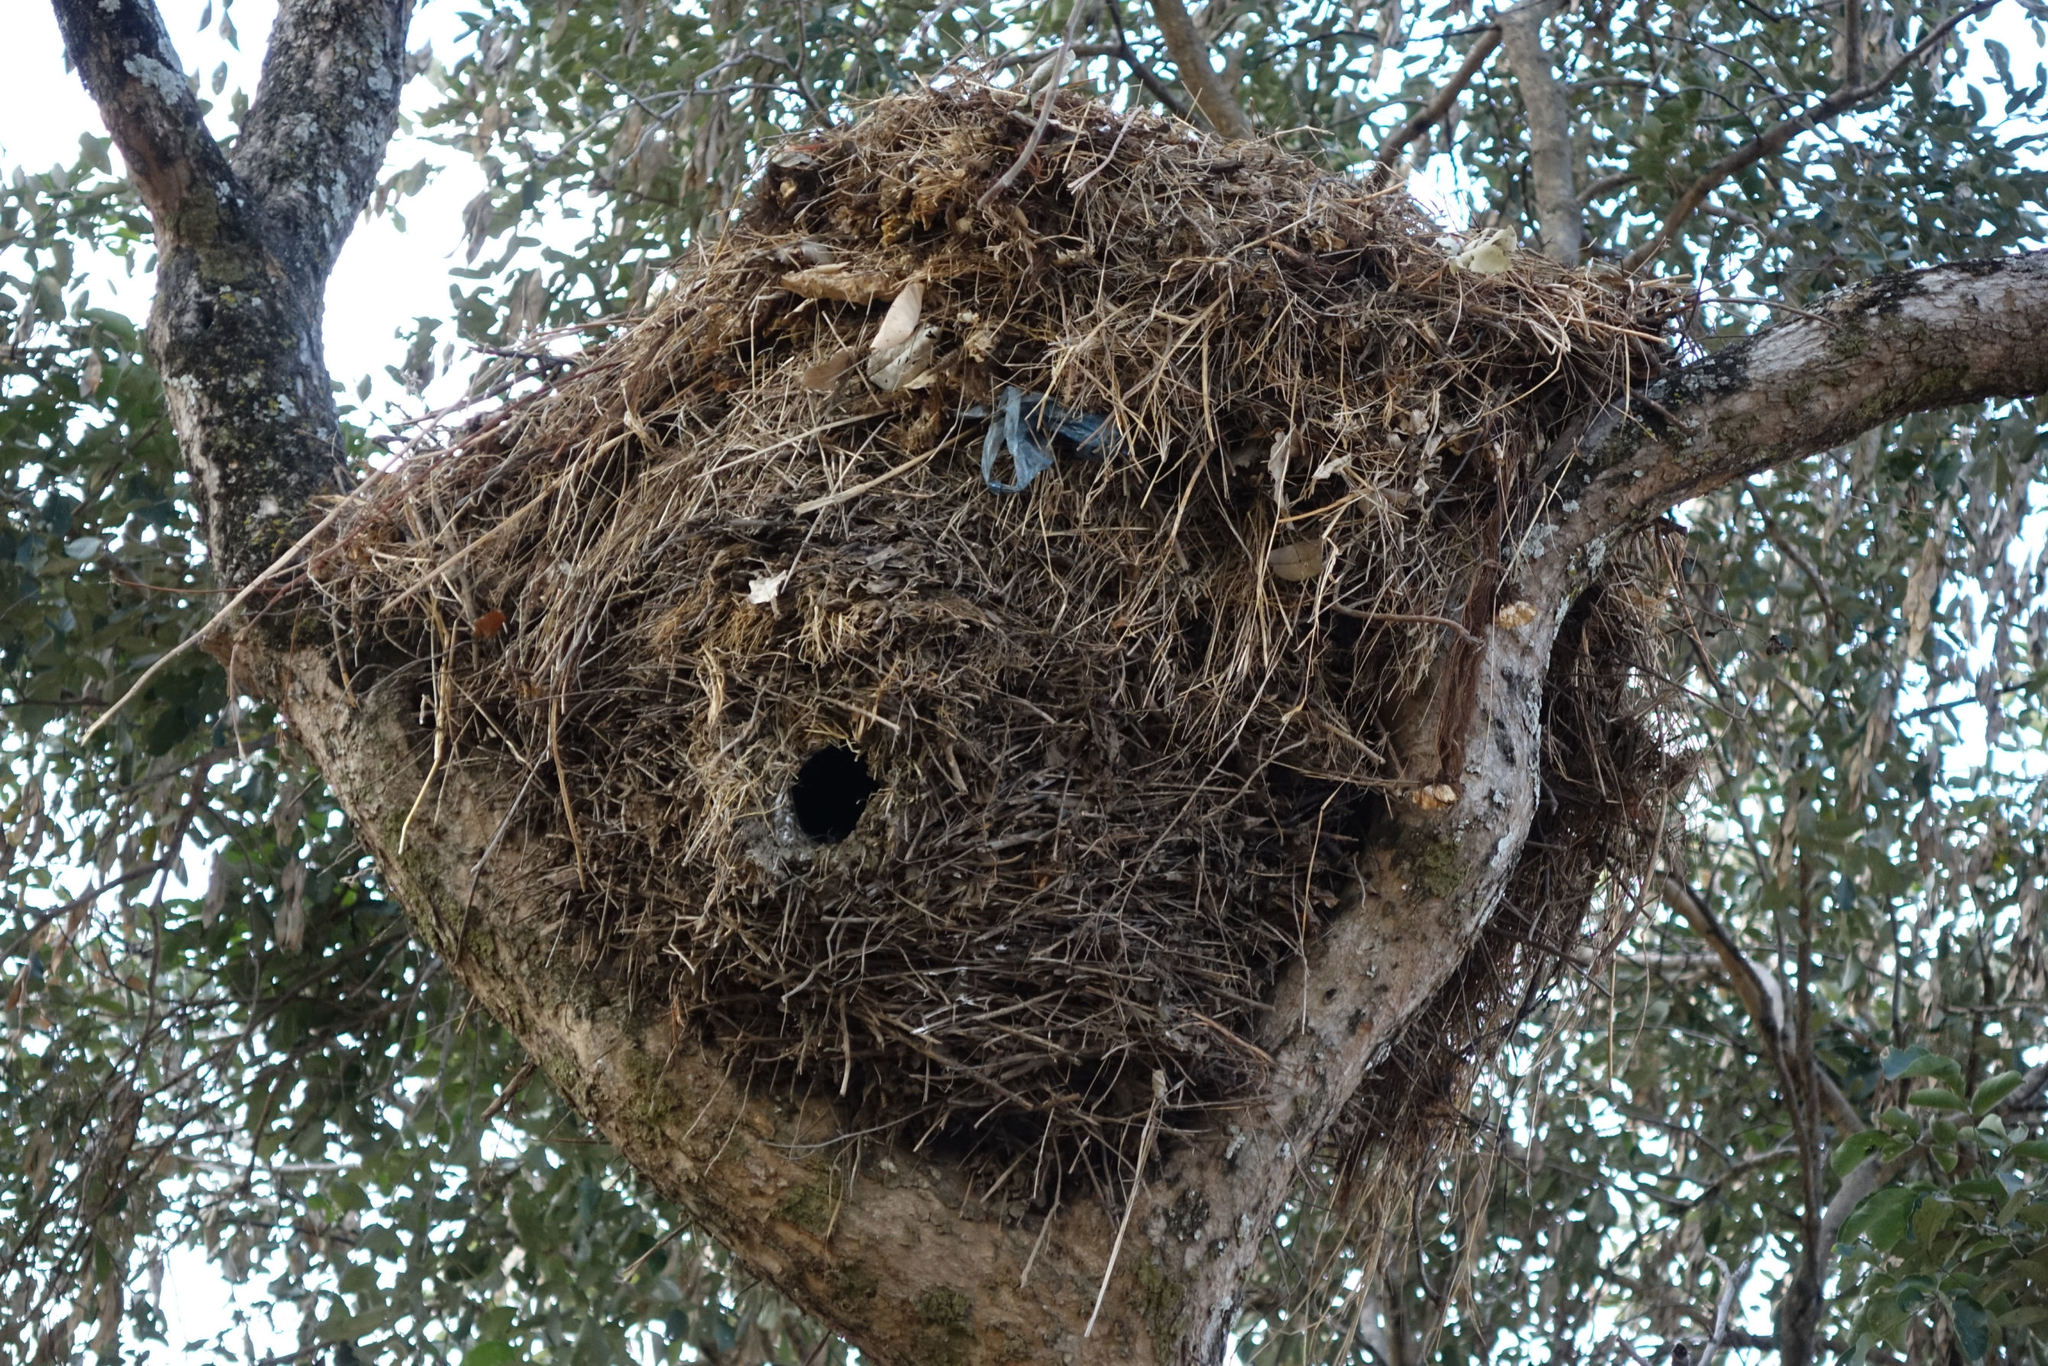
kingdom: Animalia
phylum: Chordata
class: Aves
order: Pelecaniformes
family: Scopidae
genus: Scopus
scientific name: Scopus umbretta
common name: Hamerkop
